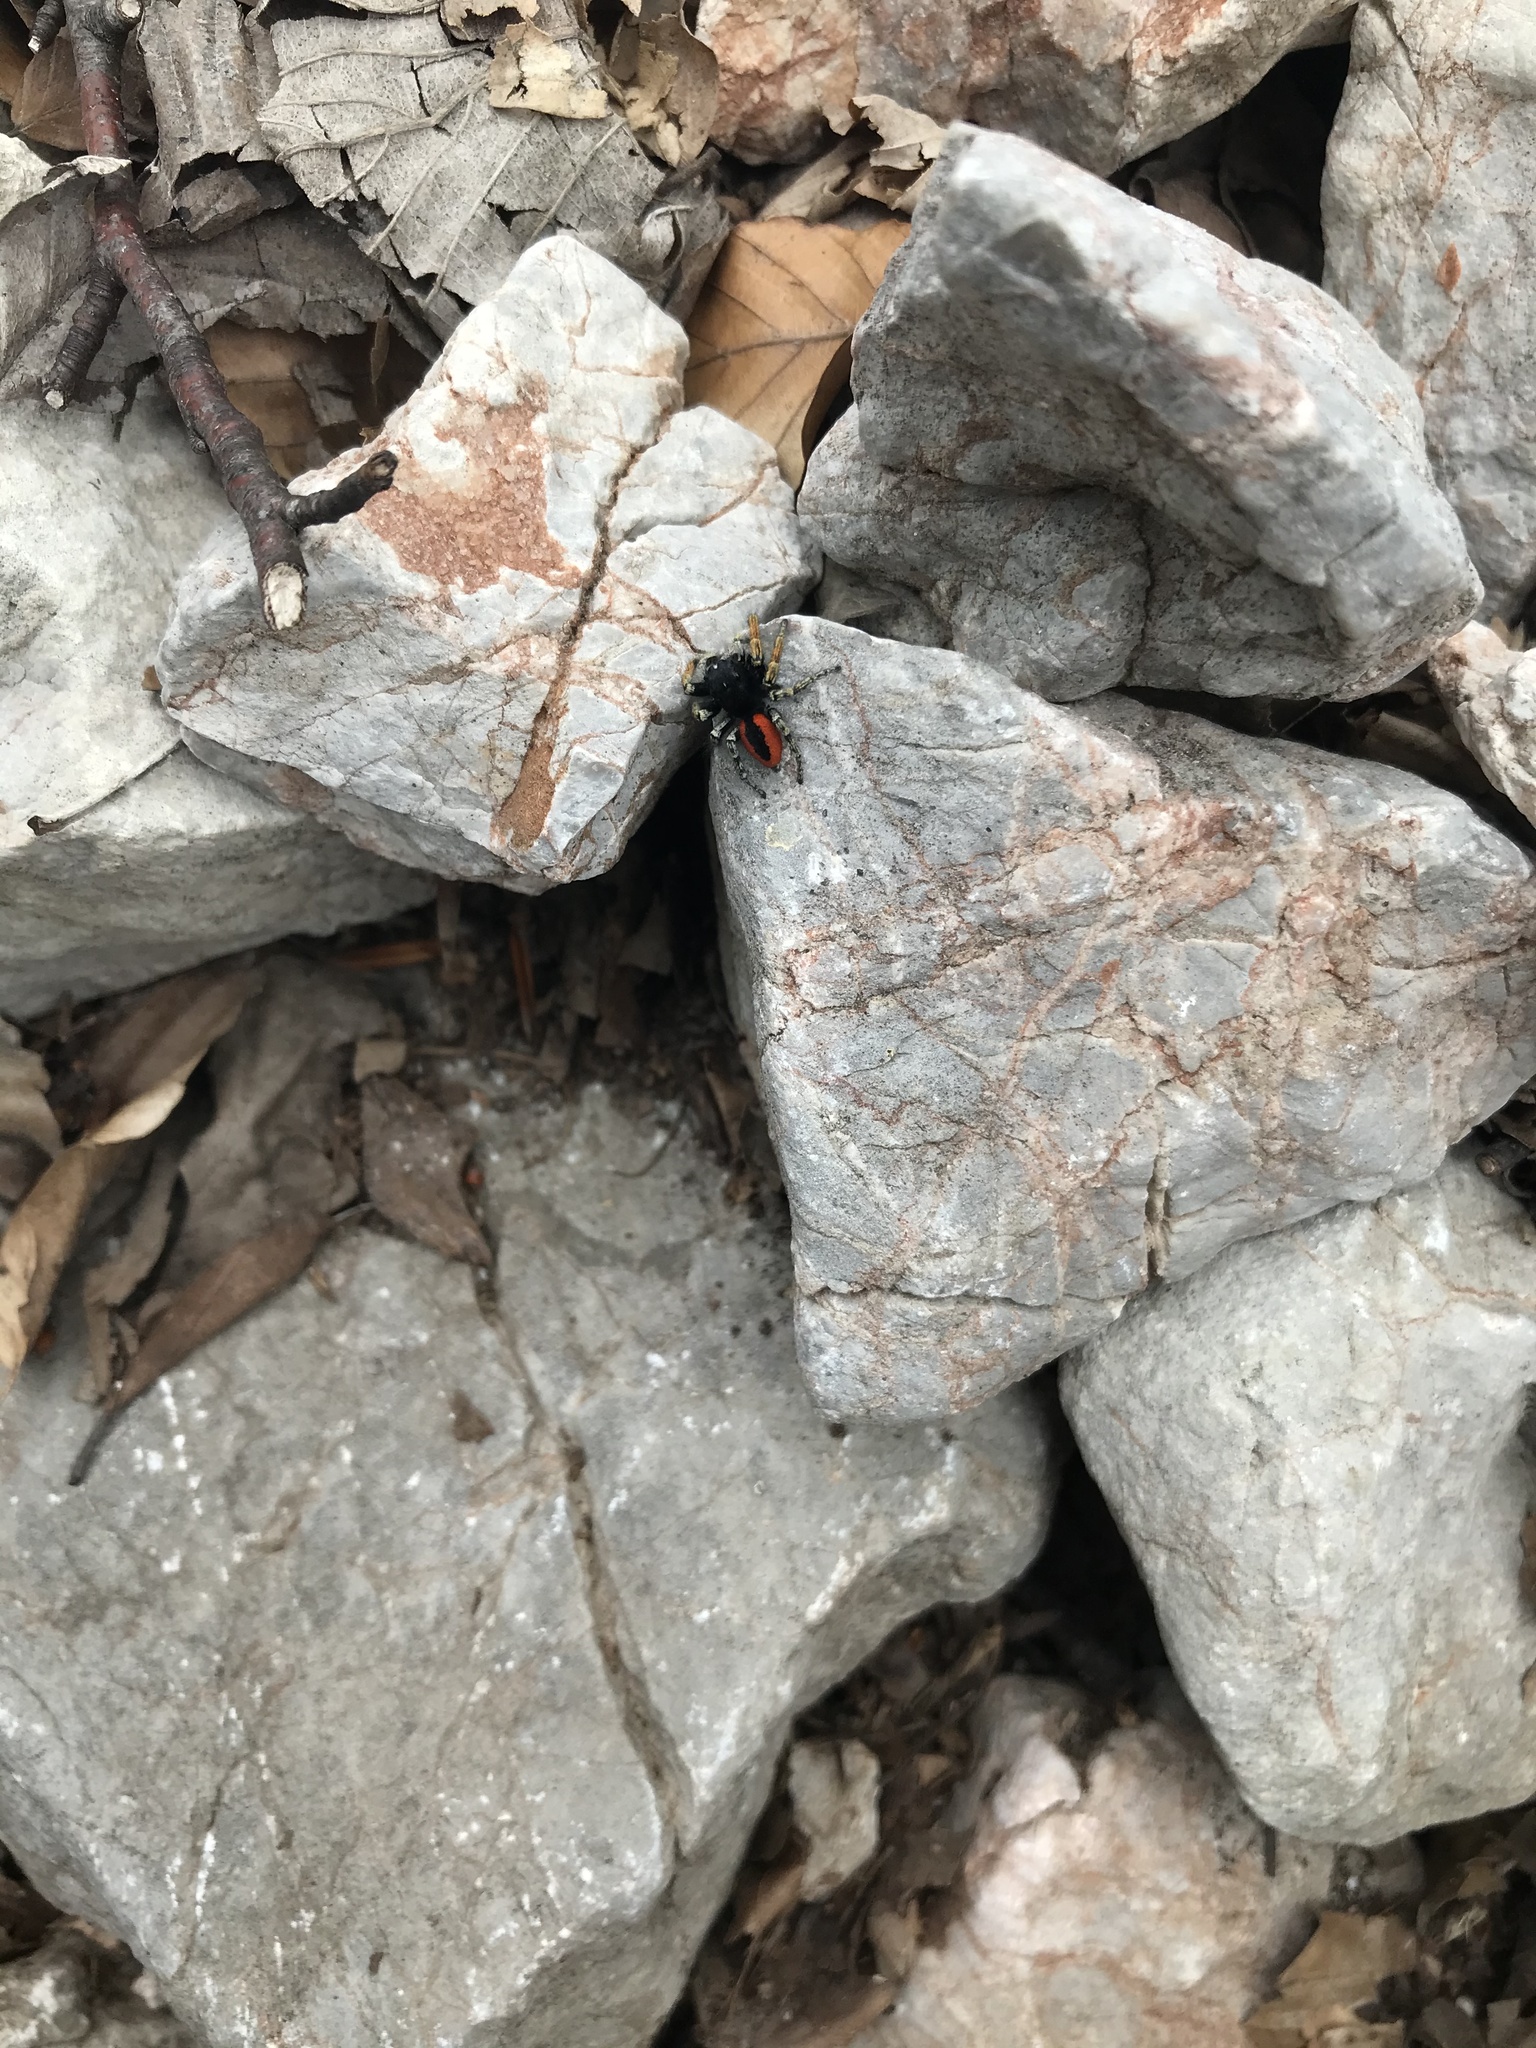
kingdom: Animalia
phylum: Arthropoda
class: Arachnida
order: Araneae
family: Salticidae
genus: Philaeus
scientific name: Philaeus chrysops
